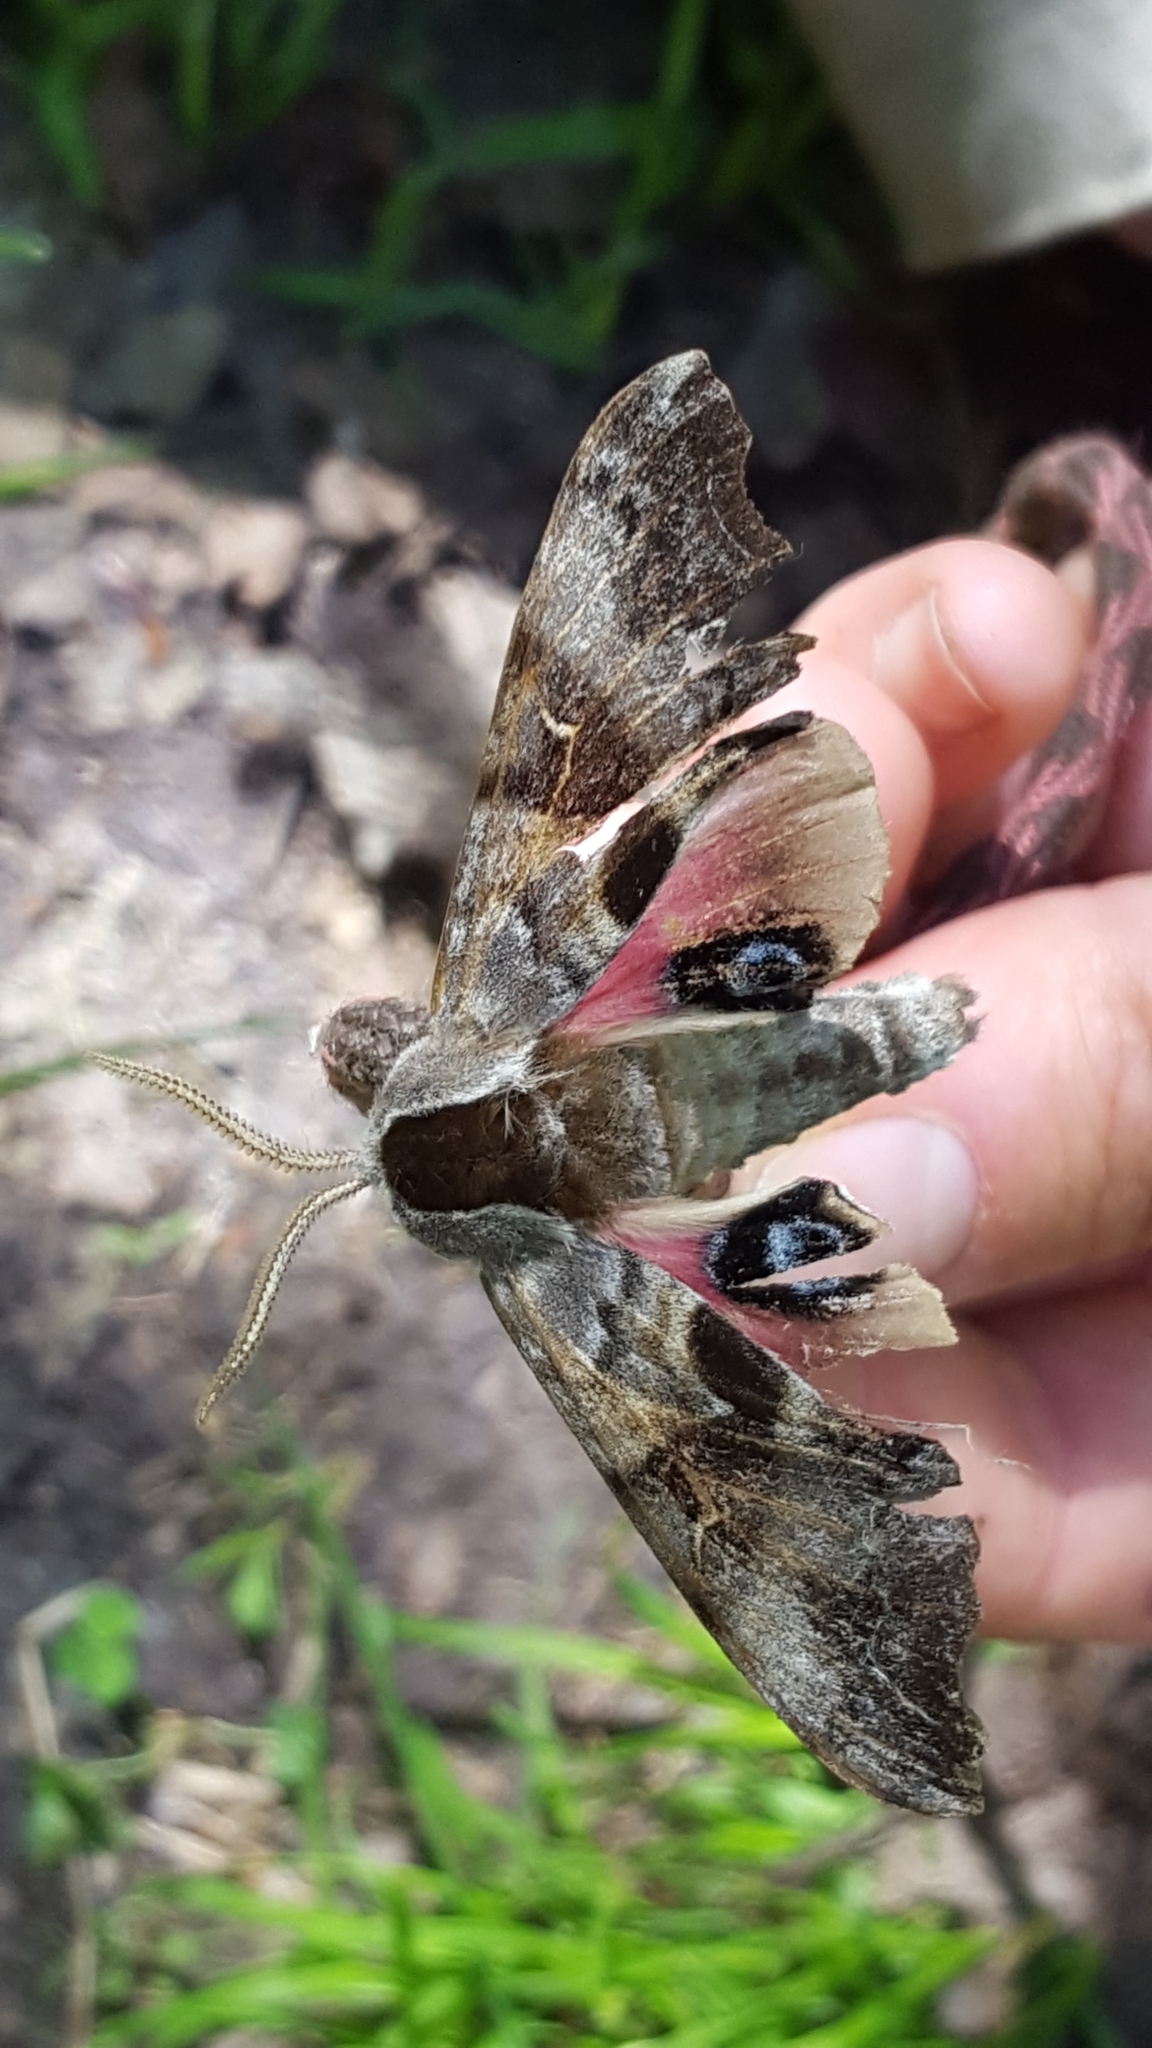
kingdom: Animalia
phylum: Arthropoda
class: Insecta
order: Lepidoptera
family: Sphingidae
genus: Smerinthus
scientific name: Smerinthus cerisyi
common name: Cerisy's sphinx moth
